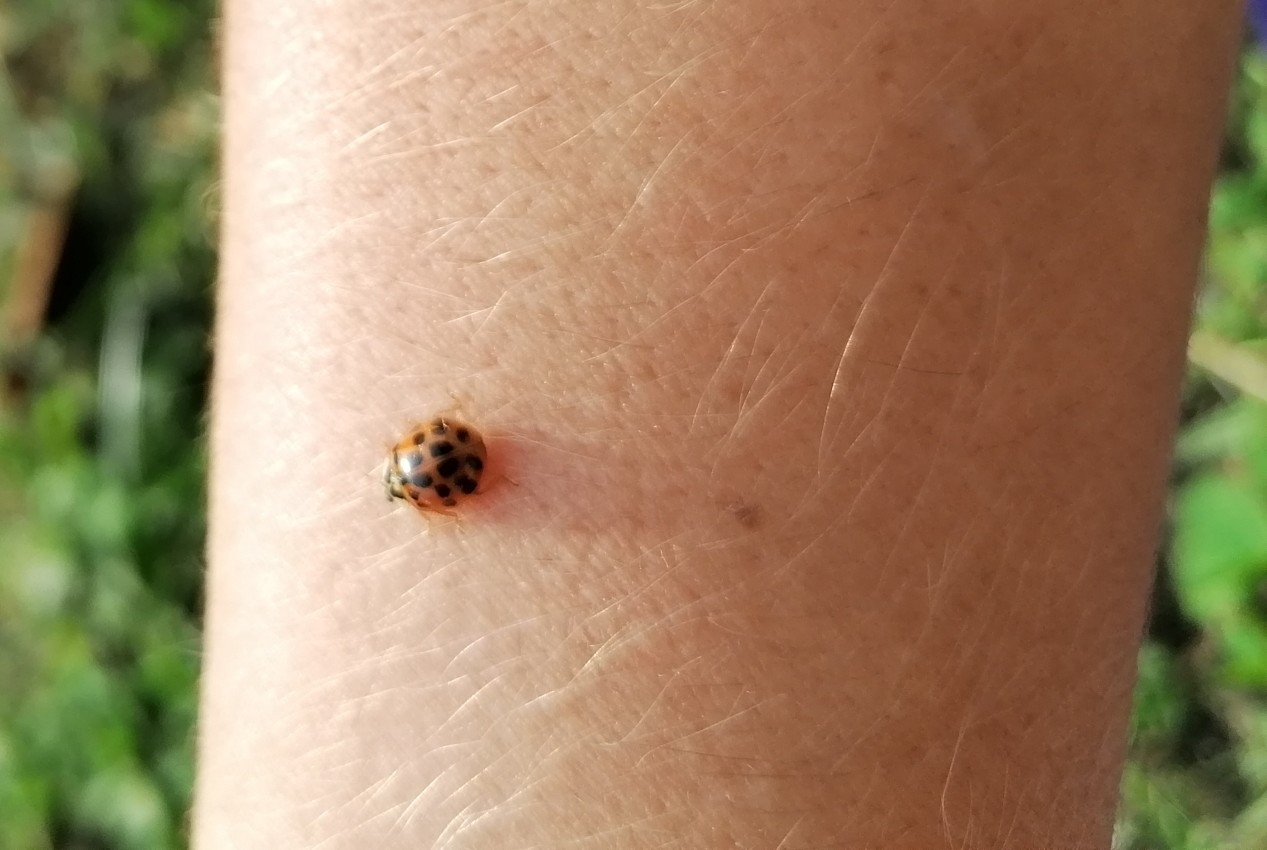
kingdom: Animalia
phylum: Arthropoda
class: Insecta
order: Coleoptera
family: Coccinellidae
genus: Harmonia
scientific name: Harmonia axyridis
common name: Harlequin ladybird
